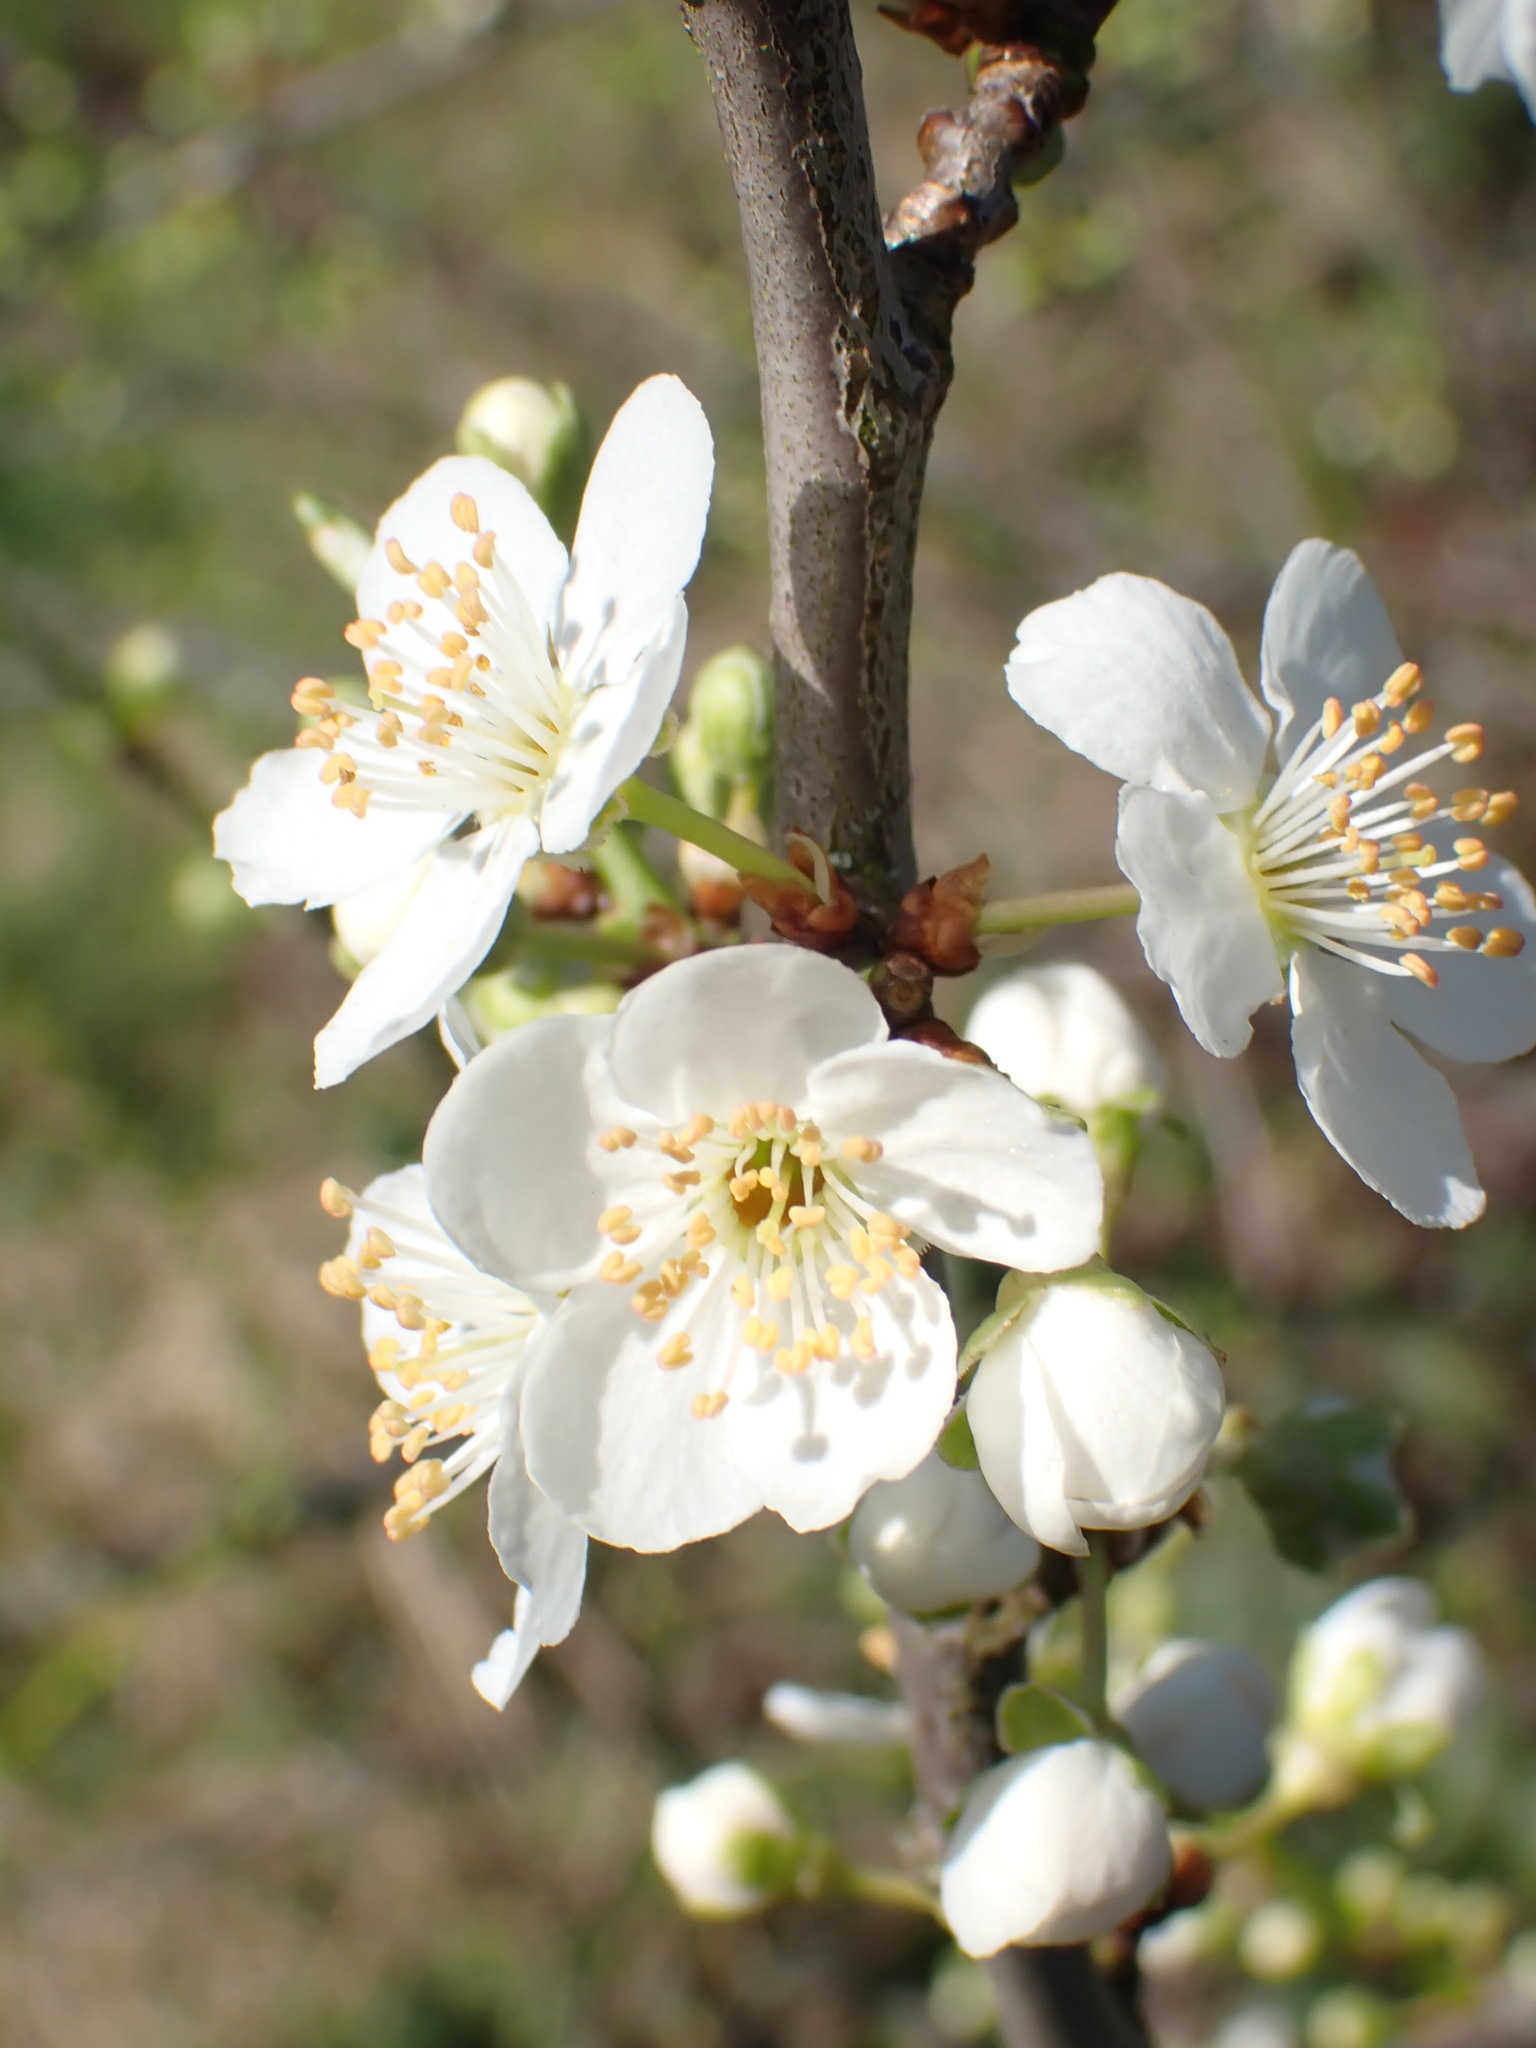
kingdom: Plantae
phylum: Tracheophyta
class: Magnoliopsida
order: Rosales
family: Rosaceae
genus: Prunus
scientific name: Prunus cerasifera
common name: Cherry plum
